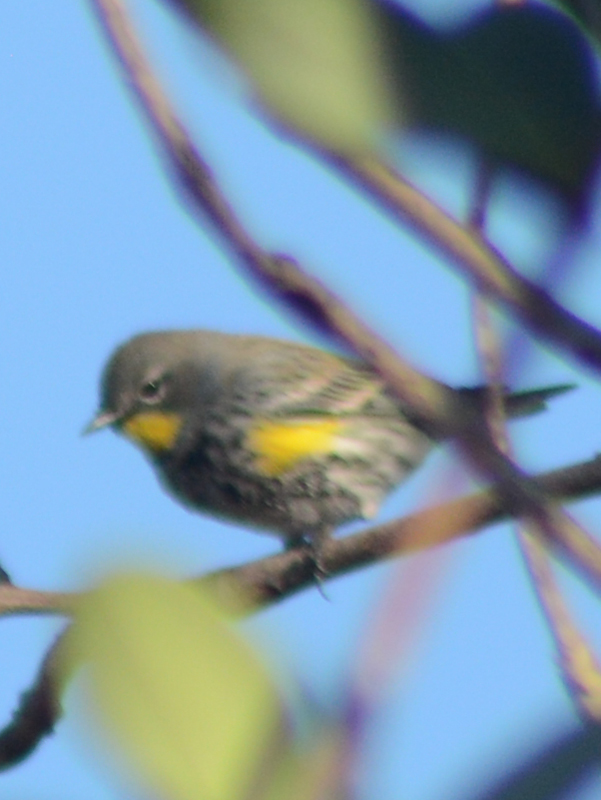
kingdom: Animalia
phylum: Chordata
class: Aves
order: Passeriformes
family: Parulidae
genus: Setophaga
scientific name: Setophaga auduboni
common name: Audubon's warbler
